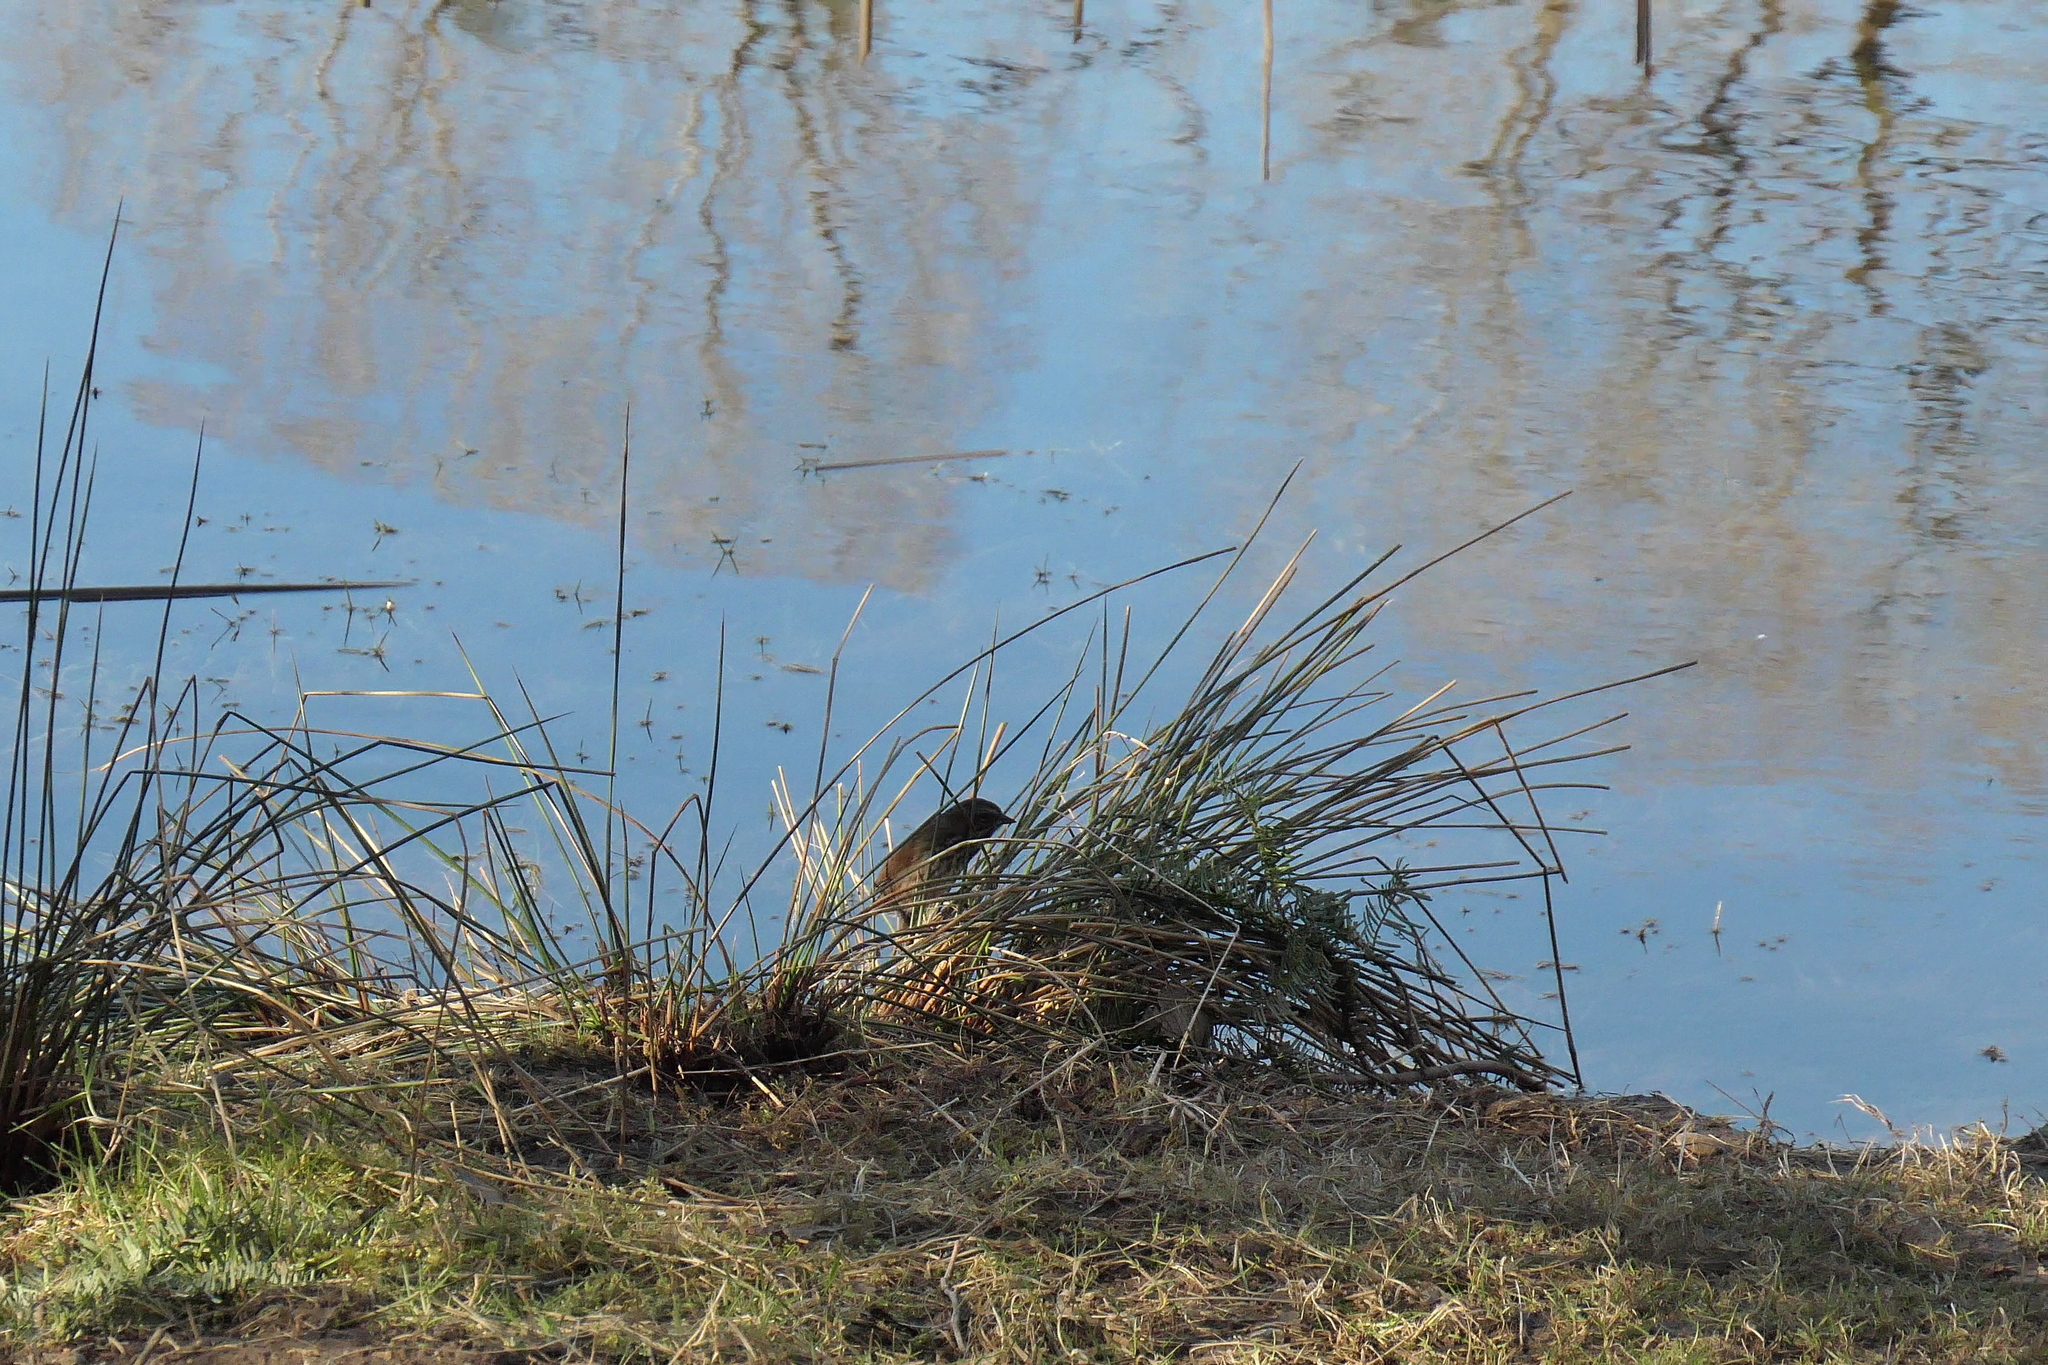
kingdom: Animalia
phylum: Chordata
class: Aves
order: Passeriformes
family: Passerellidae
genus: Melospiza
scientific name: Melospiza melodia
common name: Song sparrow
